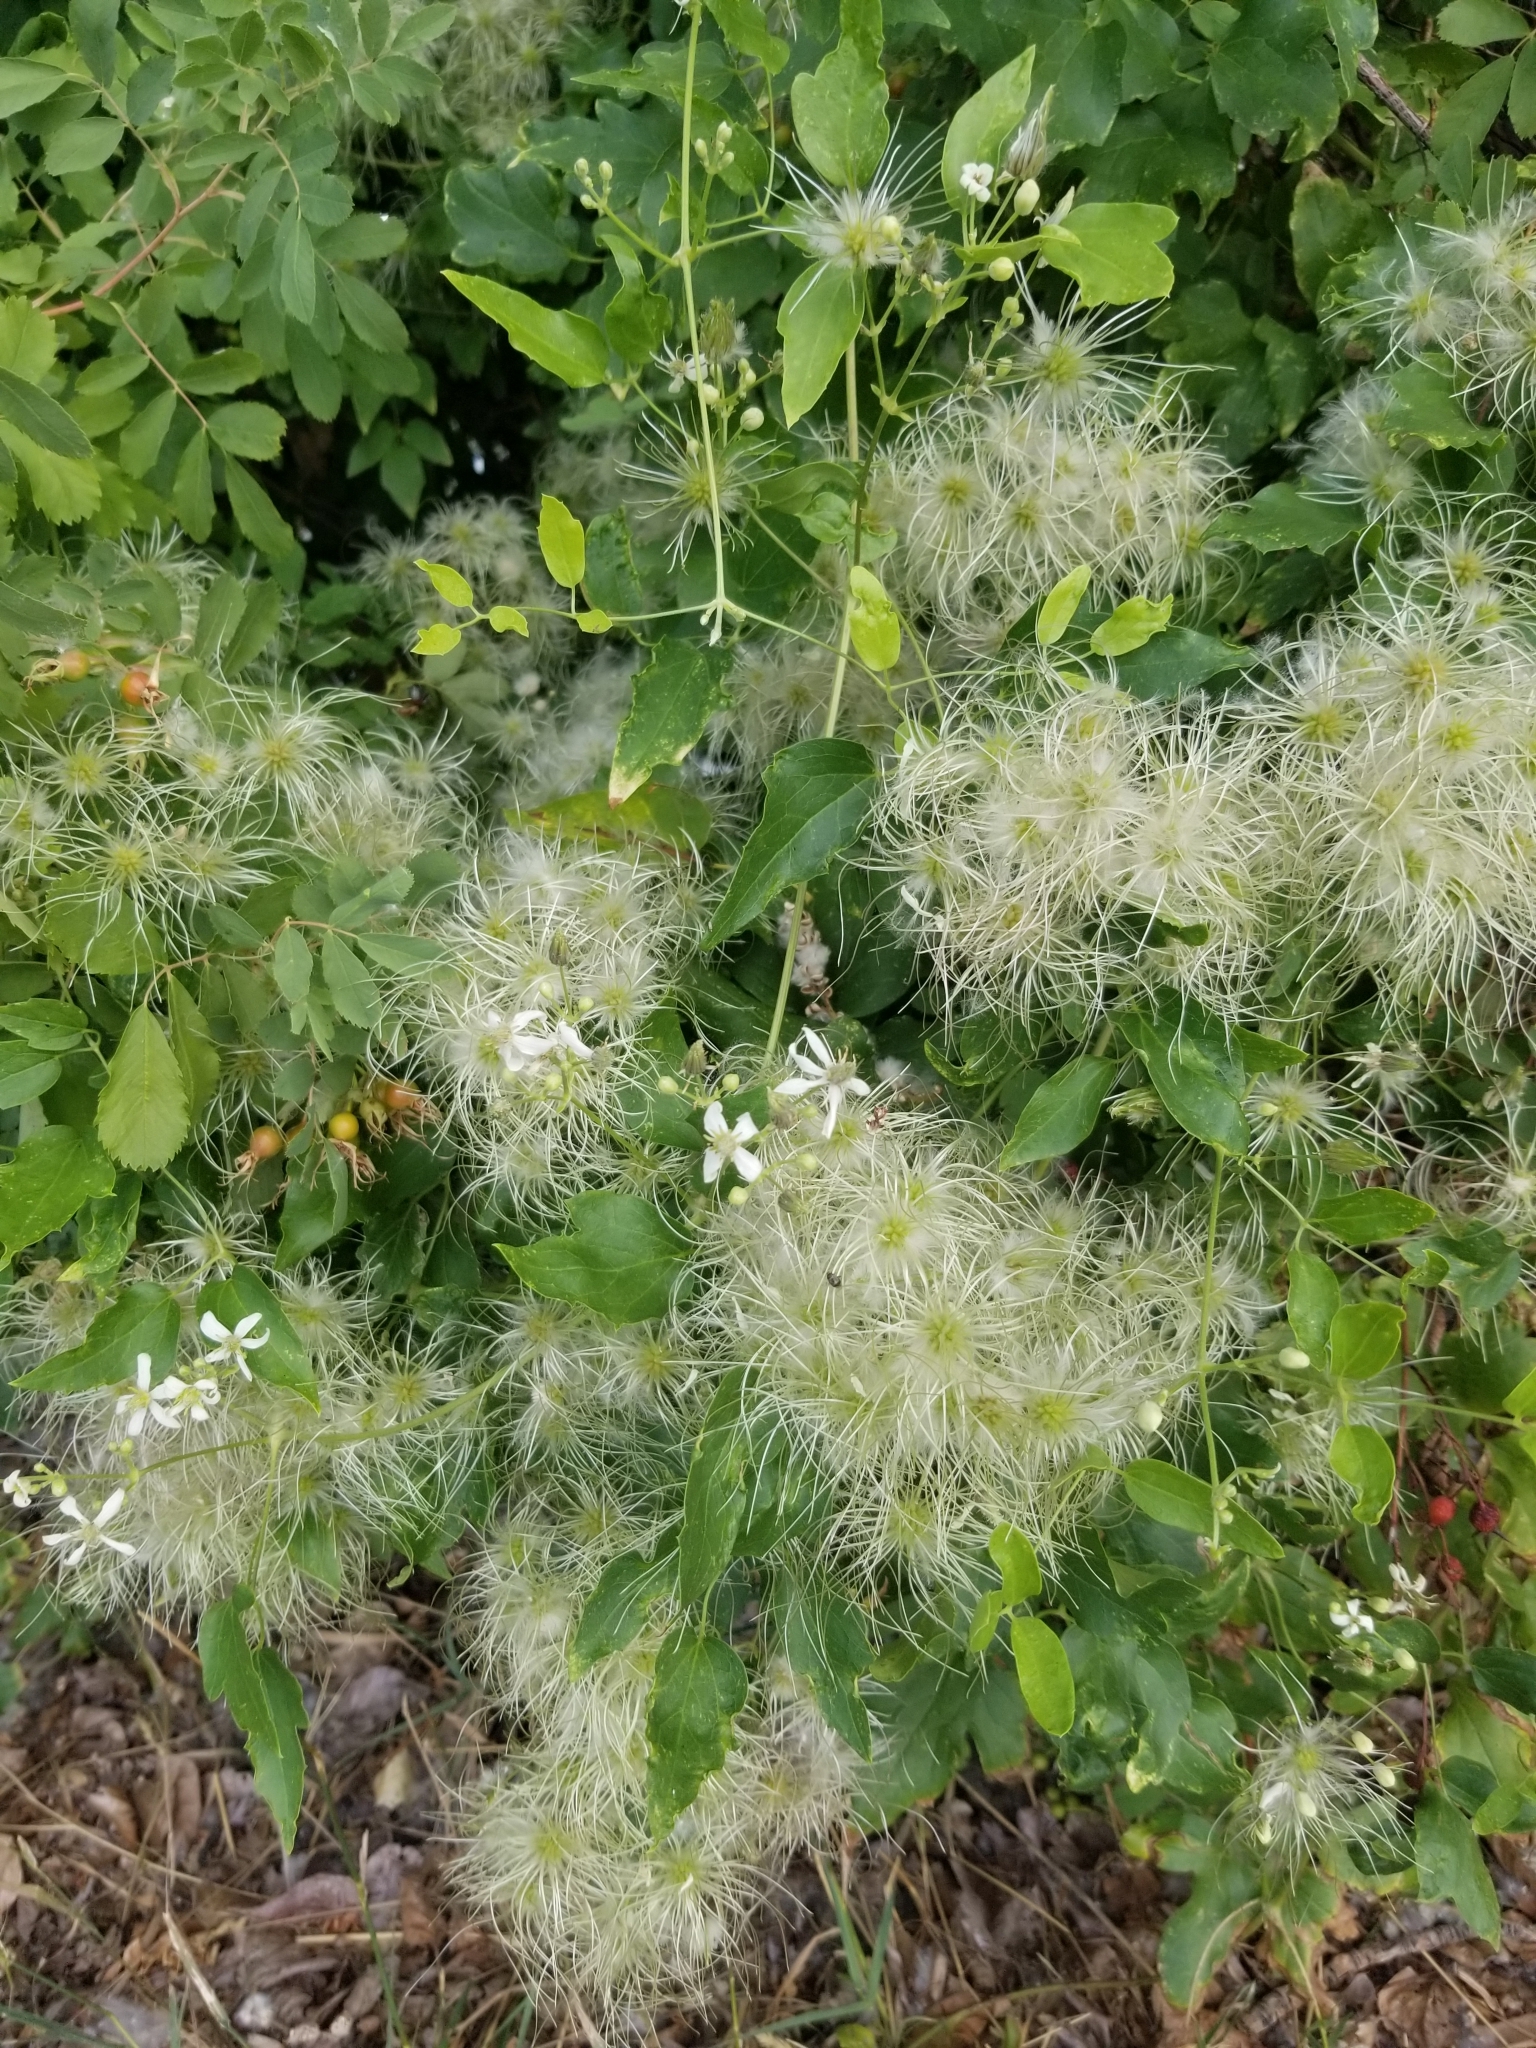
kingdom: Plantae
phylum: Tracheophyta
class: Magnoliopsida
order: Ranunculales
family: Ranunculaceae
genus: Clematis
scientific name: Clematis ligusticifolia
